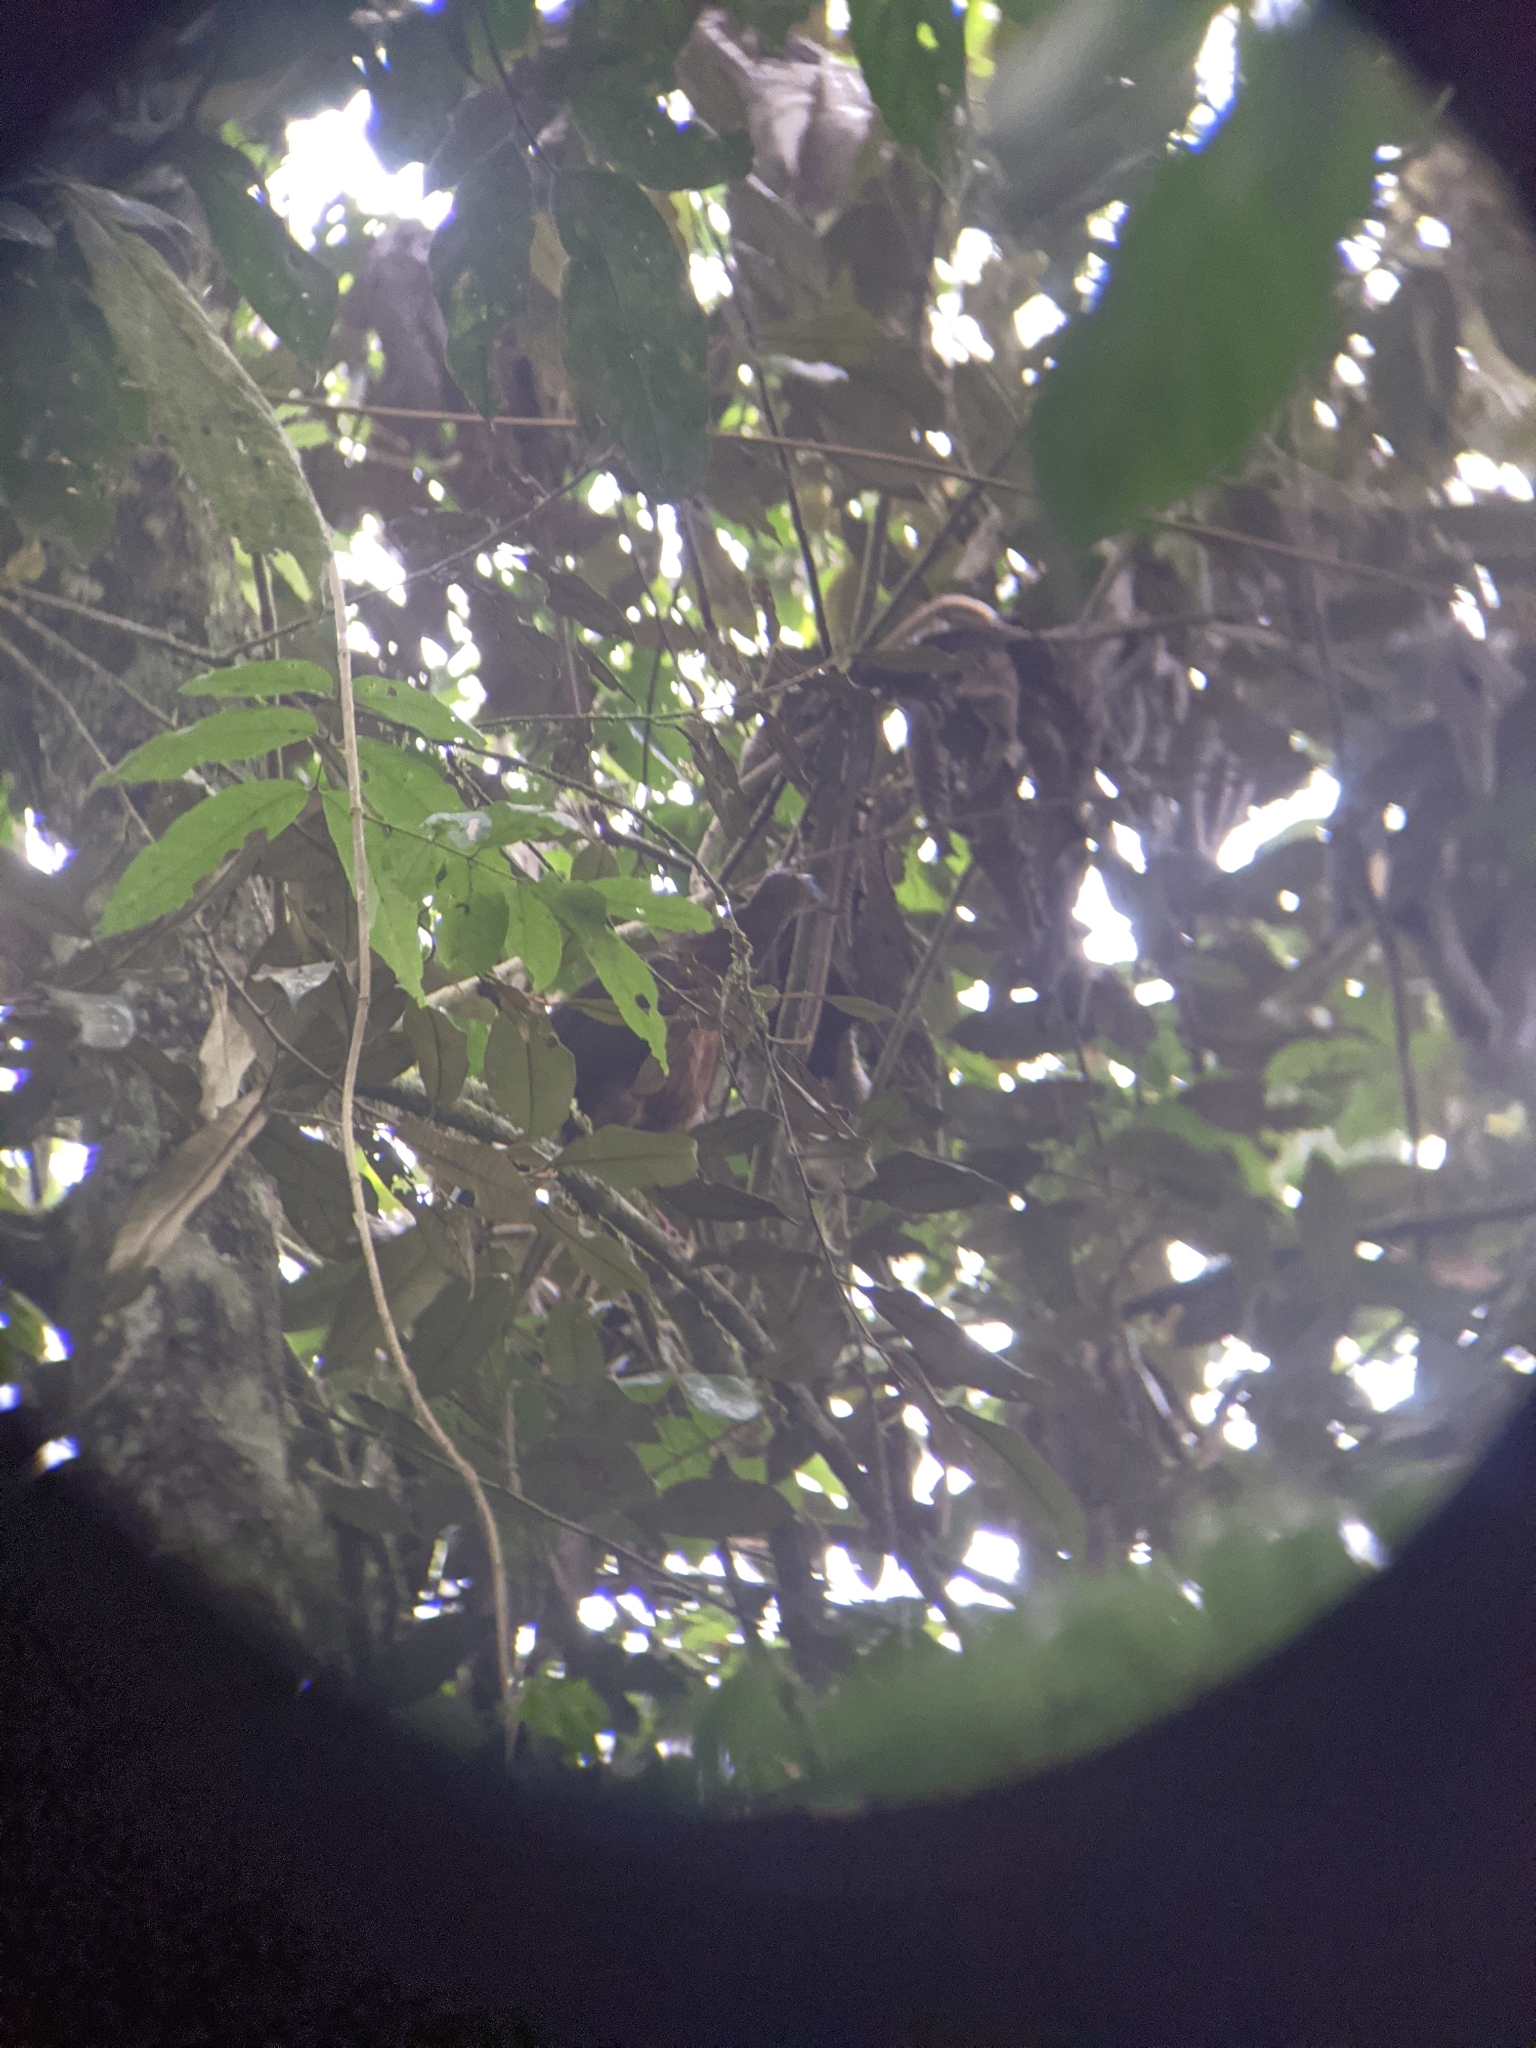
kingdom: Animalia
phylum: Chordata
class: Aves
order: Galliformes
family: Cracidae
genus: Chamaepetes
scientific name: Chamaepetes goudotii
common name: Sickle-winged guan
